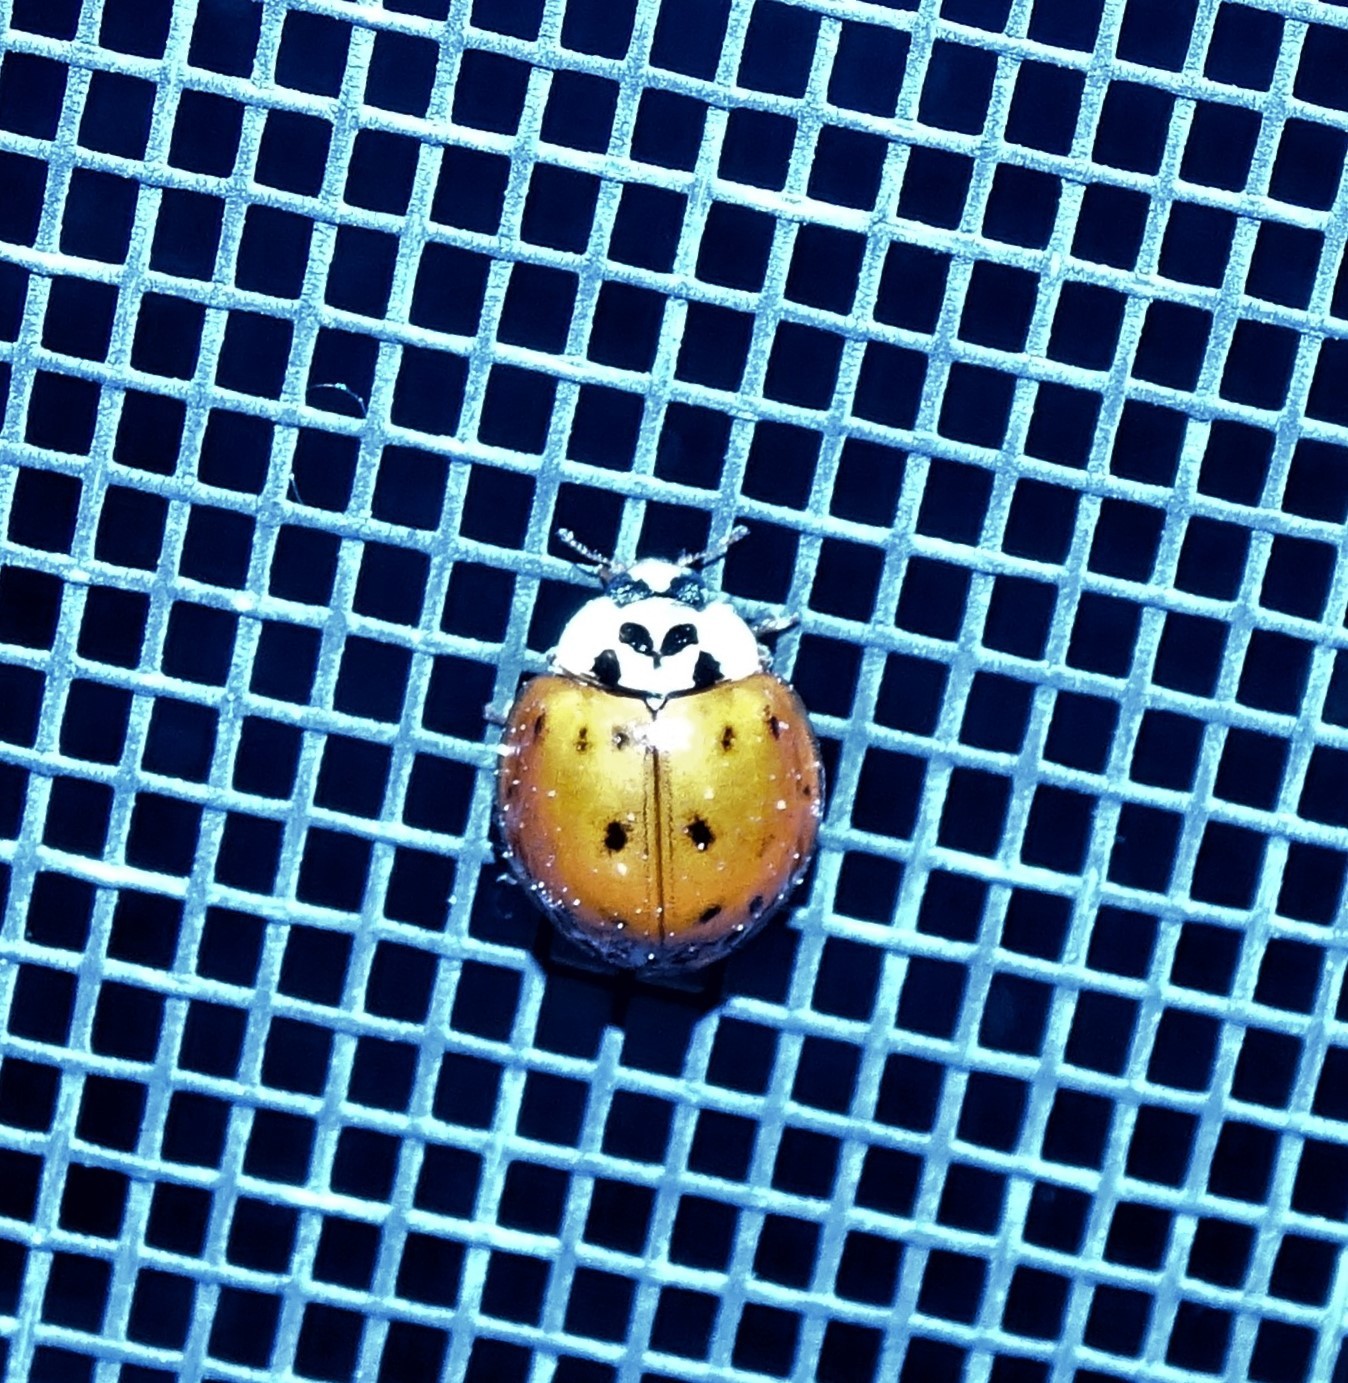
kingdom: Animalia
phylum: Arthropoda
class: Insecta
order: Coleoptera
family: Coccinellidae
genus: Harmonia
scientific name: Harmonia axyridis
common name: Harlequin ladybird
